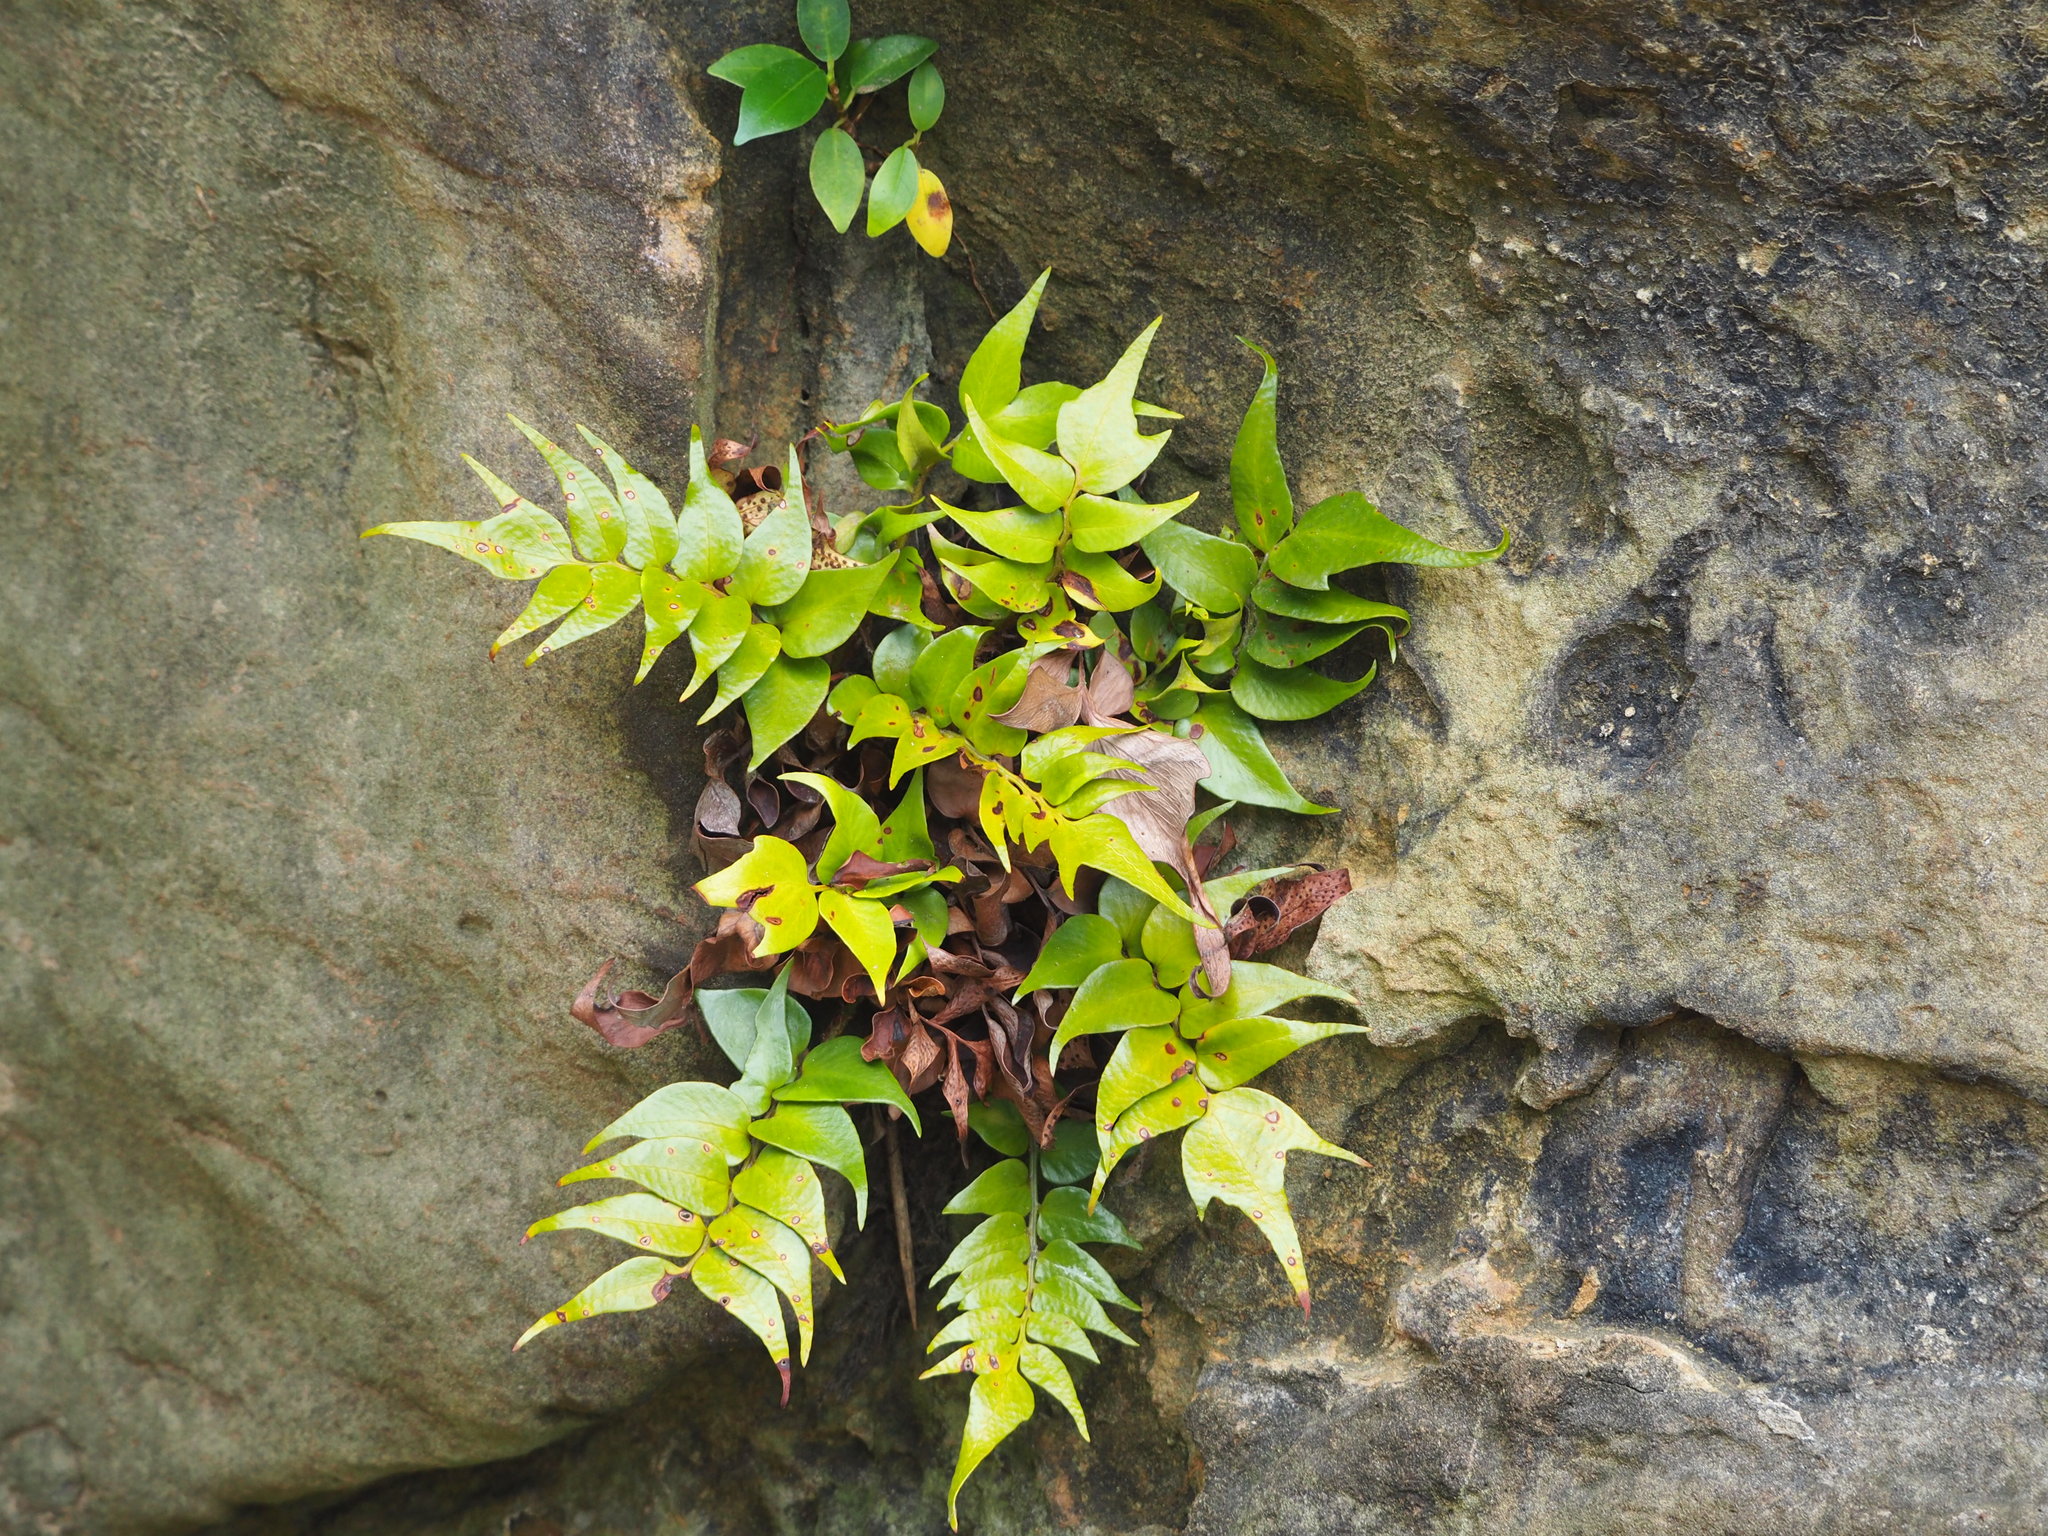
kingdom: Plantae
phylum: Tracheophyta
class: Polypodiopsida
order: Polypodiales
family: Dryopteridaceae
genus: Cyrtomium
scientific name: Cyrtomium falcatum
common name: House holly-fern
